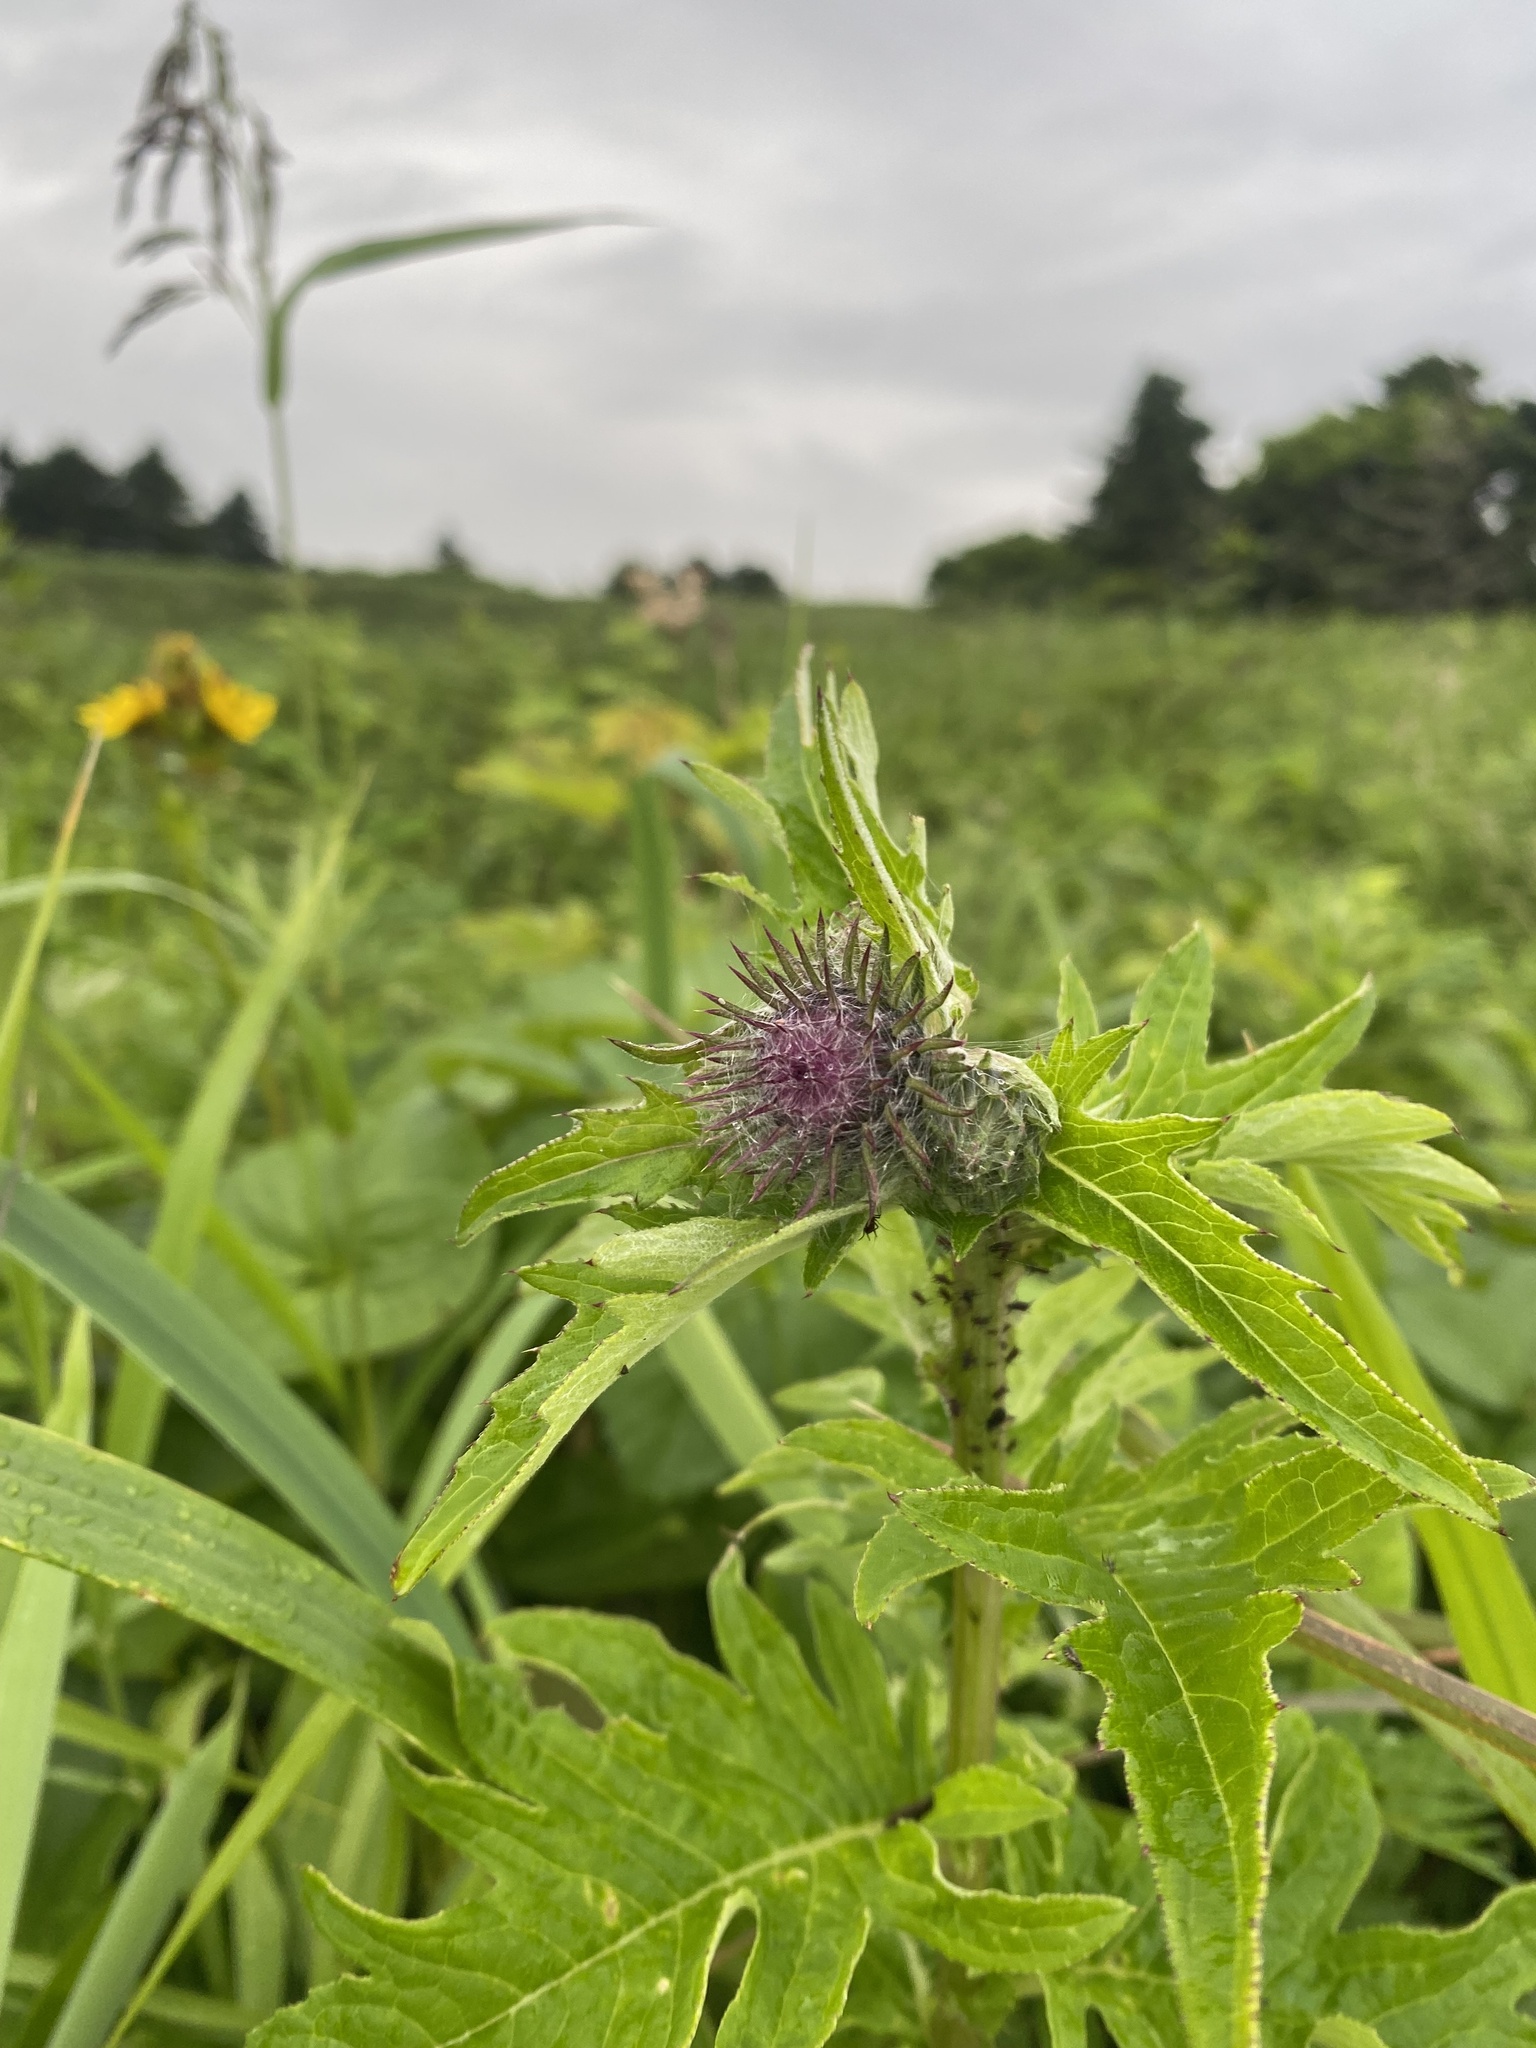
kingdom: Plantae
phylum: Tracheophyta
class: Magnoliopsida
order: Asterales
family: Asteraceae
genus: Cirsium
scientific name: Cirsium kamtschaticum
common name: Kamchatka thistle
